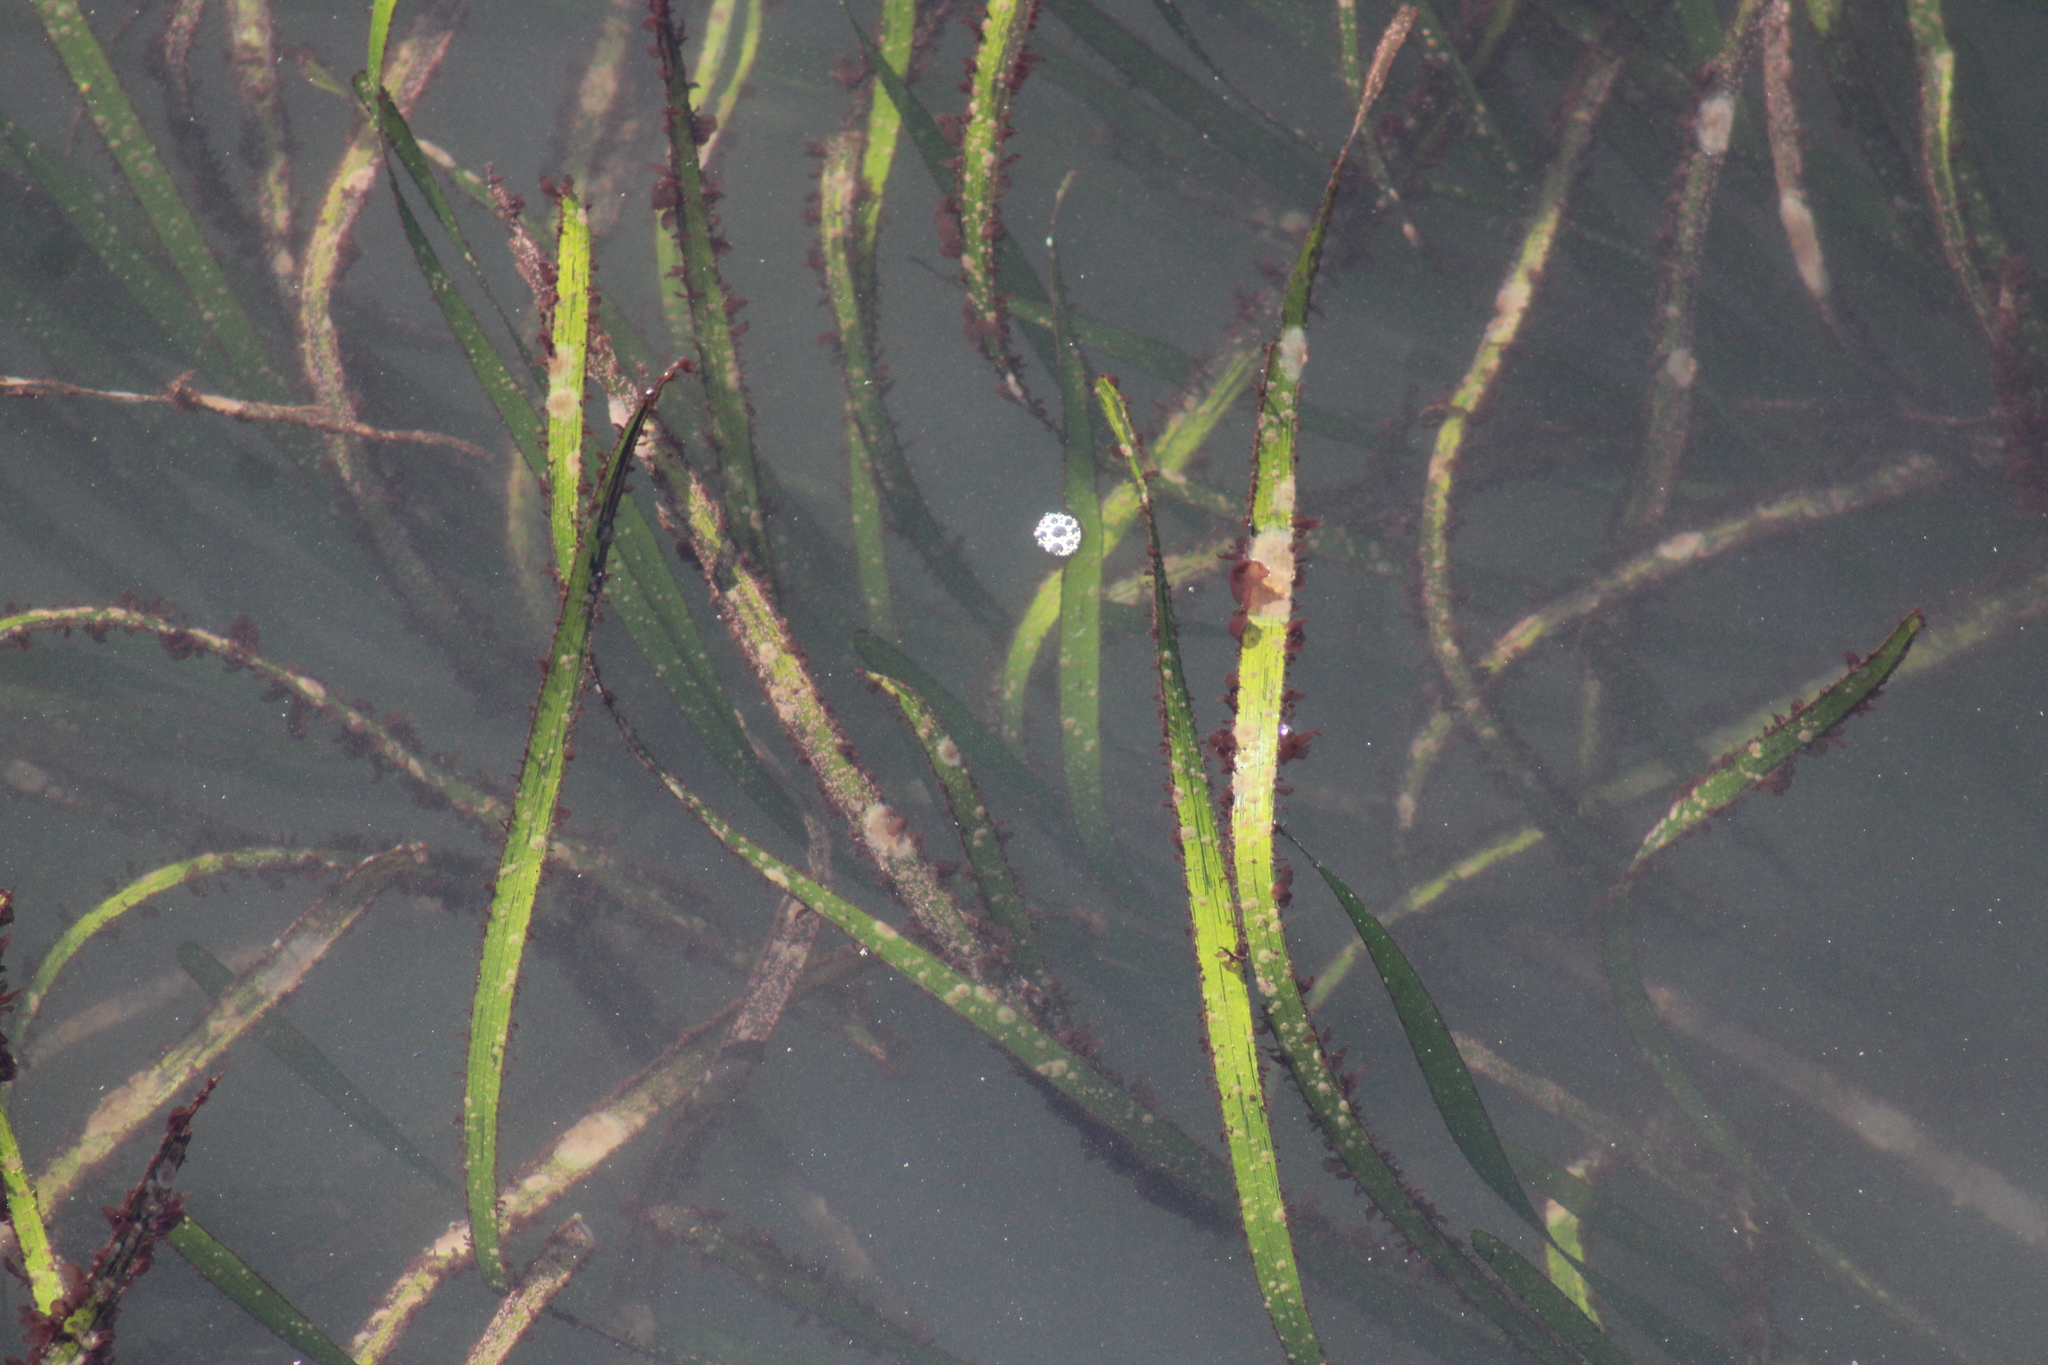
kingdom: Plantae
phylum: Tracheophyta
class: Liliopsida
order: Alismatales
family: Zosteraceae
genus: Zostera
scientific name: Zostera marina
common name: Eelgrass
